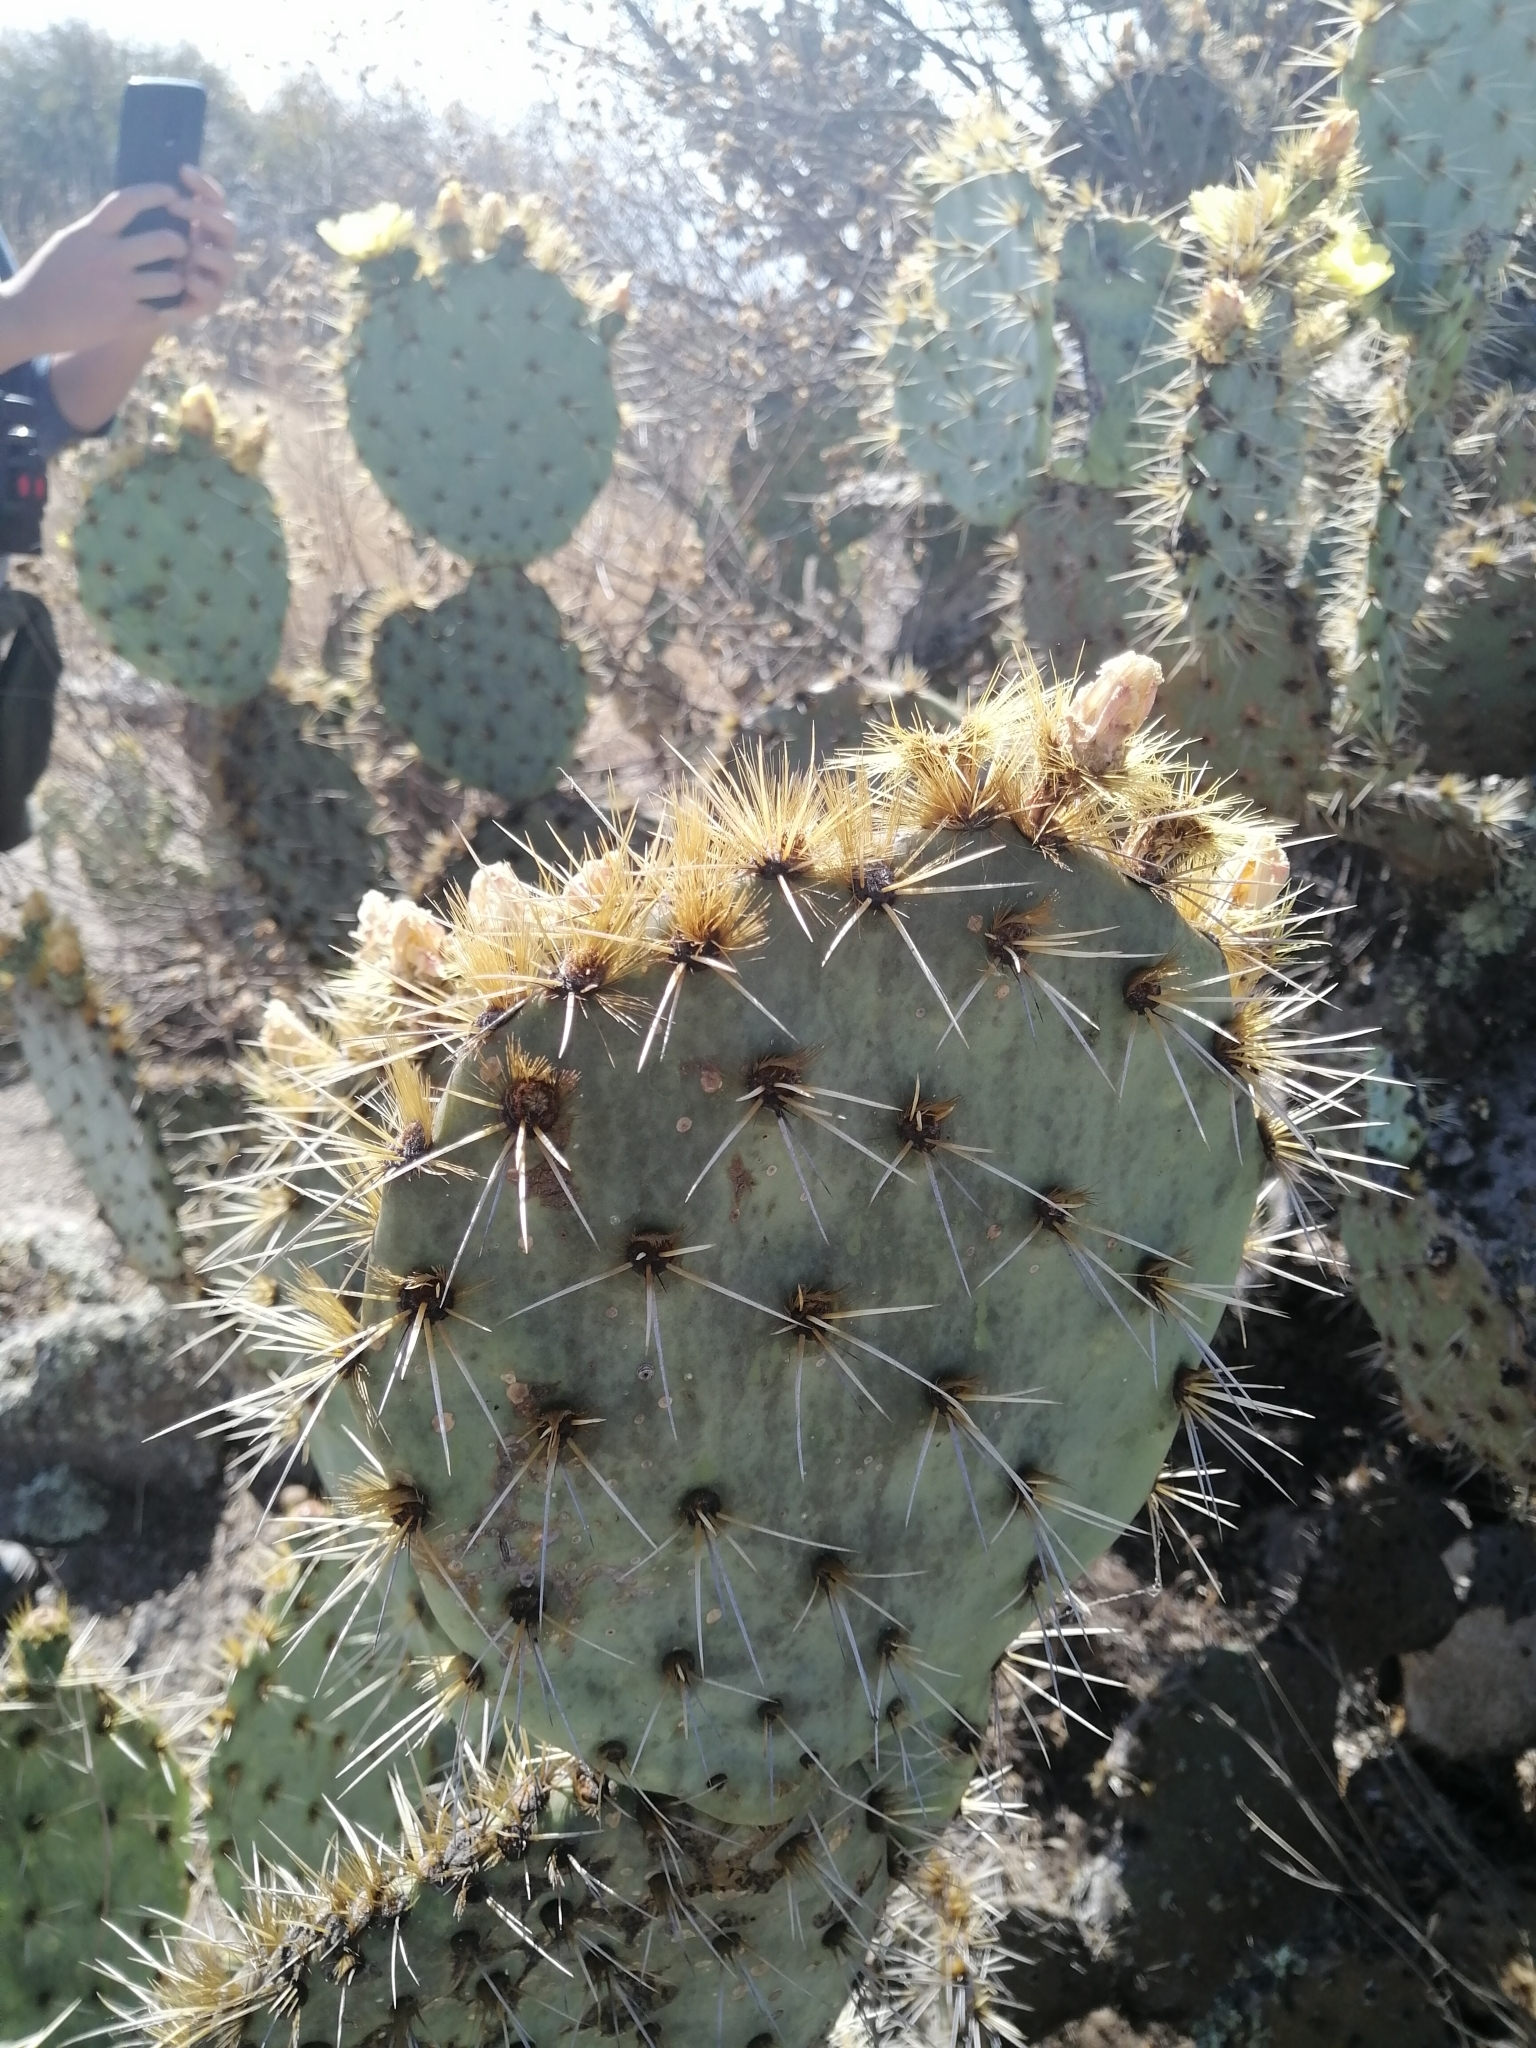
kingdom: Plantae
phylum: Tracheophyta
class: Magnoliopsida
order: Caryophyllales
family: Cactaceae
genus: Opuntia
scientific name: Opuntia robusta
